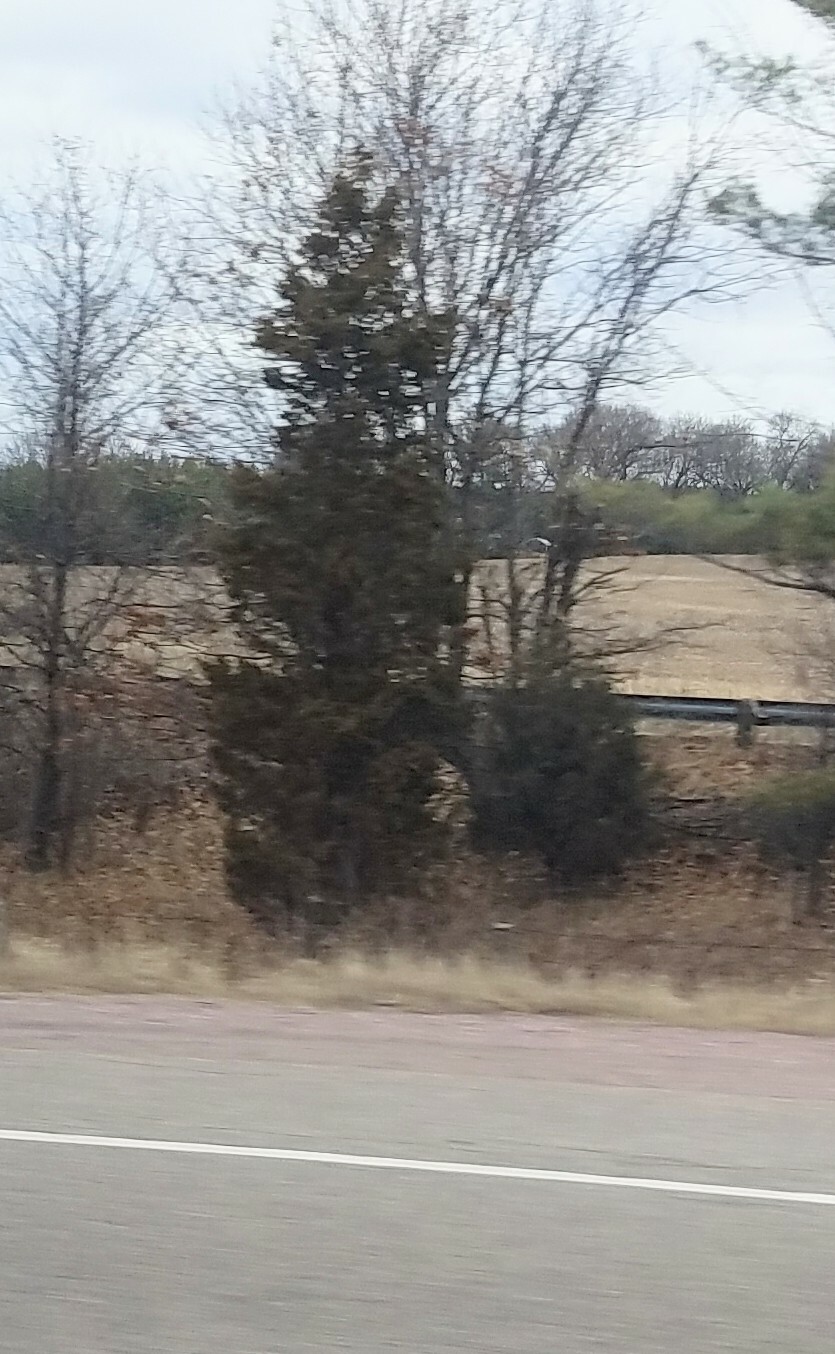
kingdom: Plantae
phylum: Tracheophyta
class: Pinopsida
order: Pinales
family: Cupressaceae
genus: Juniperus
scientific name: Juniperus virginiana
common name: Red juniper
